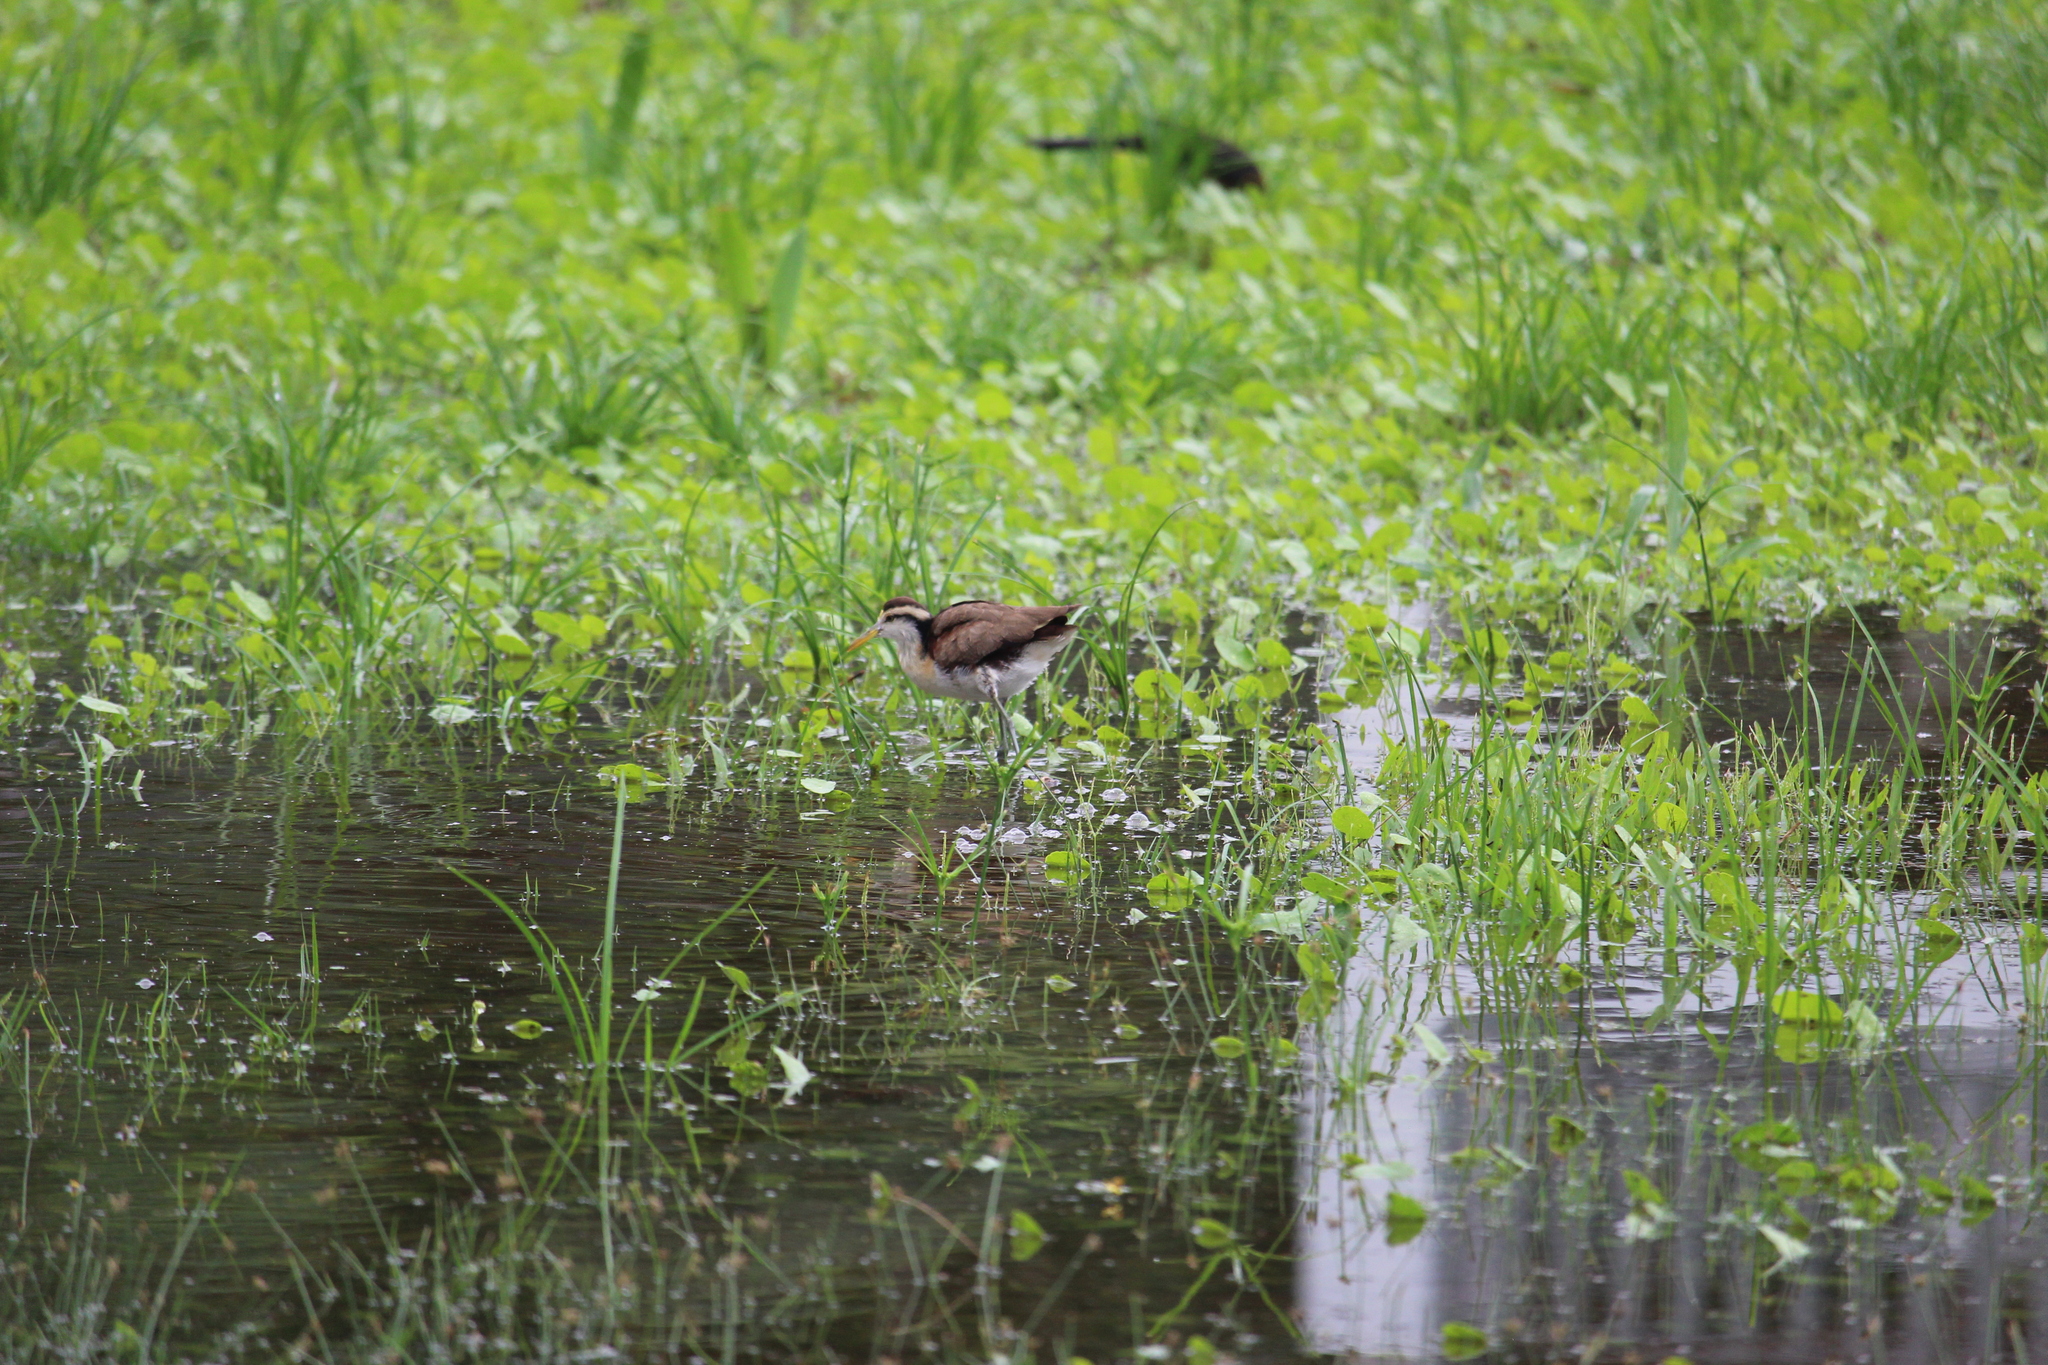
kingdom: Animalia
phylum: Chordata
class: Aves
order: Charadriiformes
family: Jacanidae
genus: Jacana
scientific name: Jacana spinosa
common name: Northern jacana
